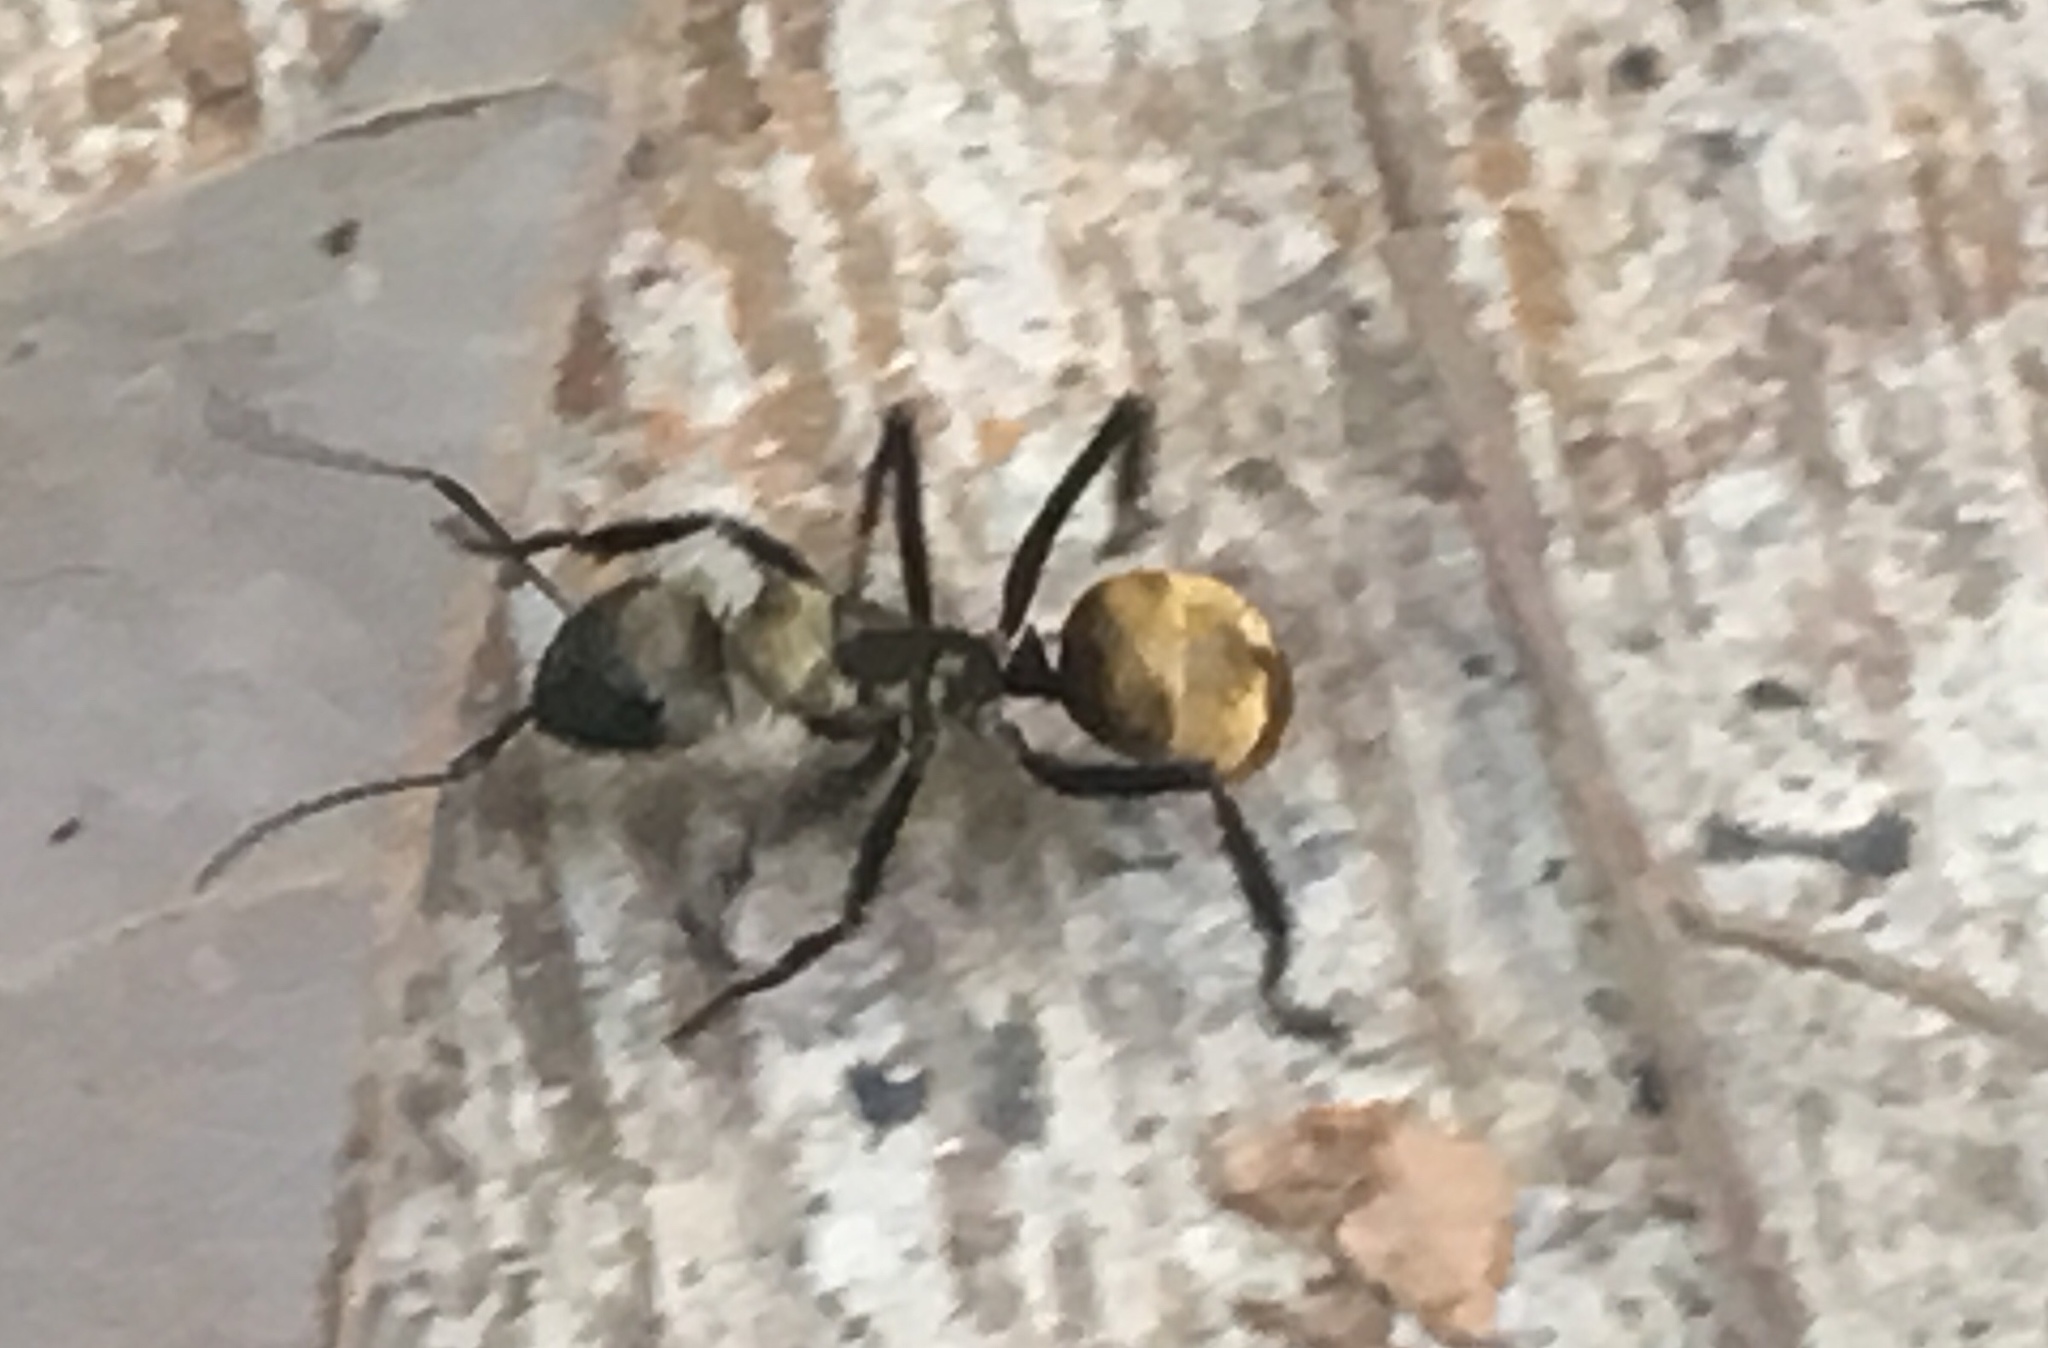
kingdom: Animalia
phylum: Arthropoda
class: Insecta
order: Hymenoptera
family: Formicidae
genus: Camponotus
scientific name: Camponotus sericeiventris
